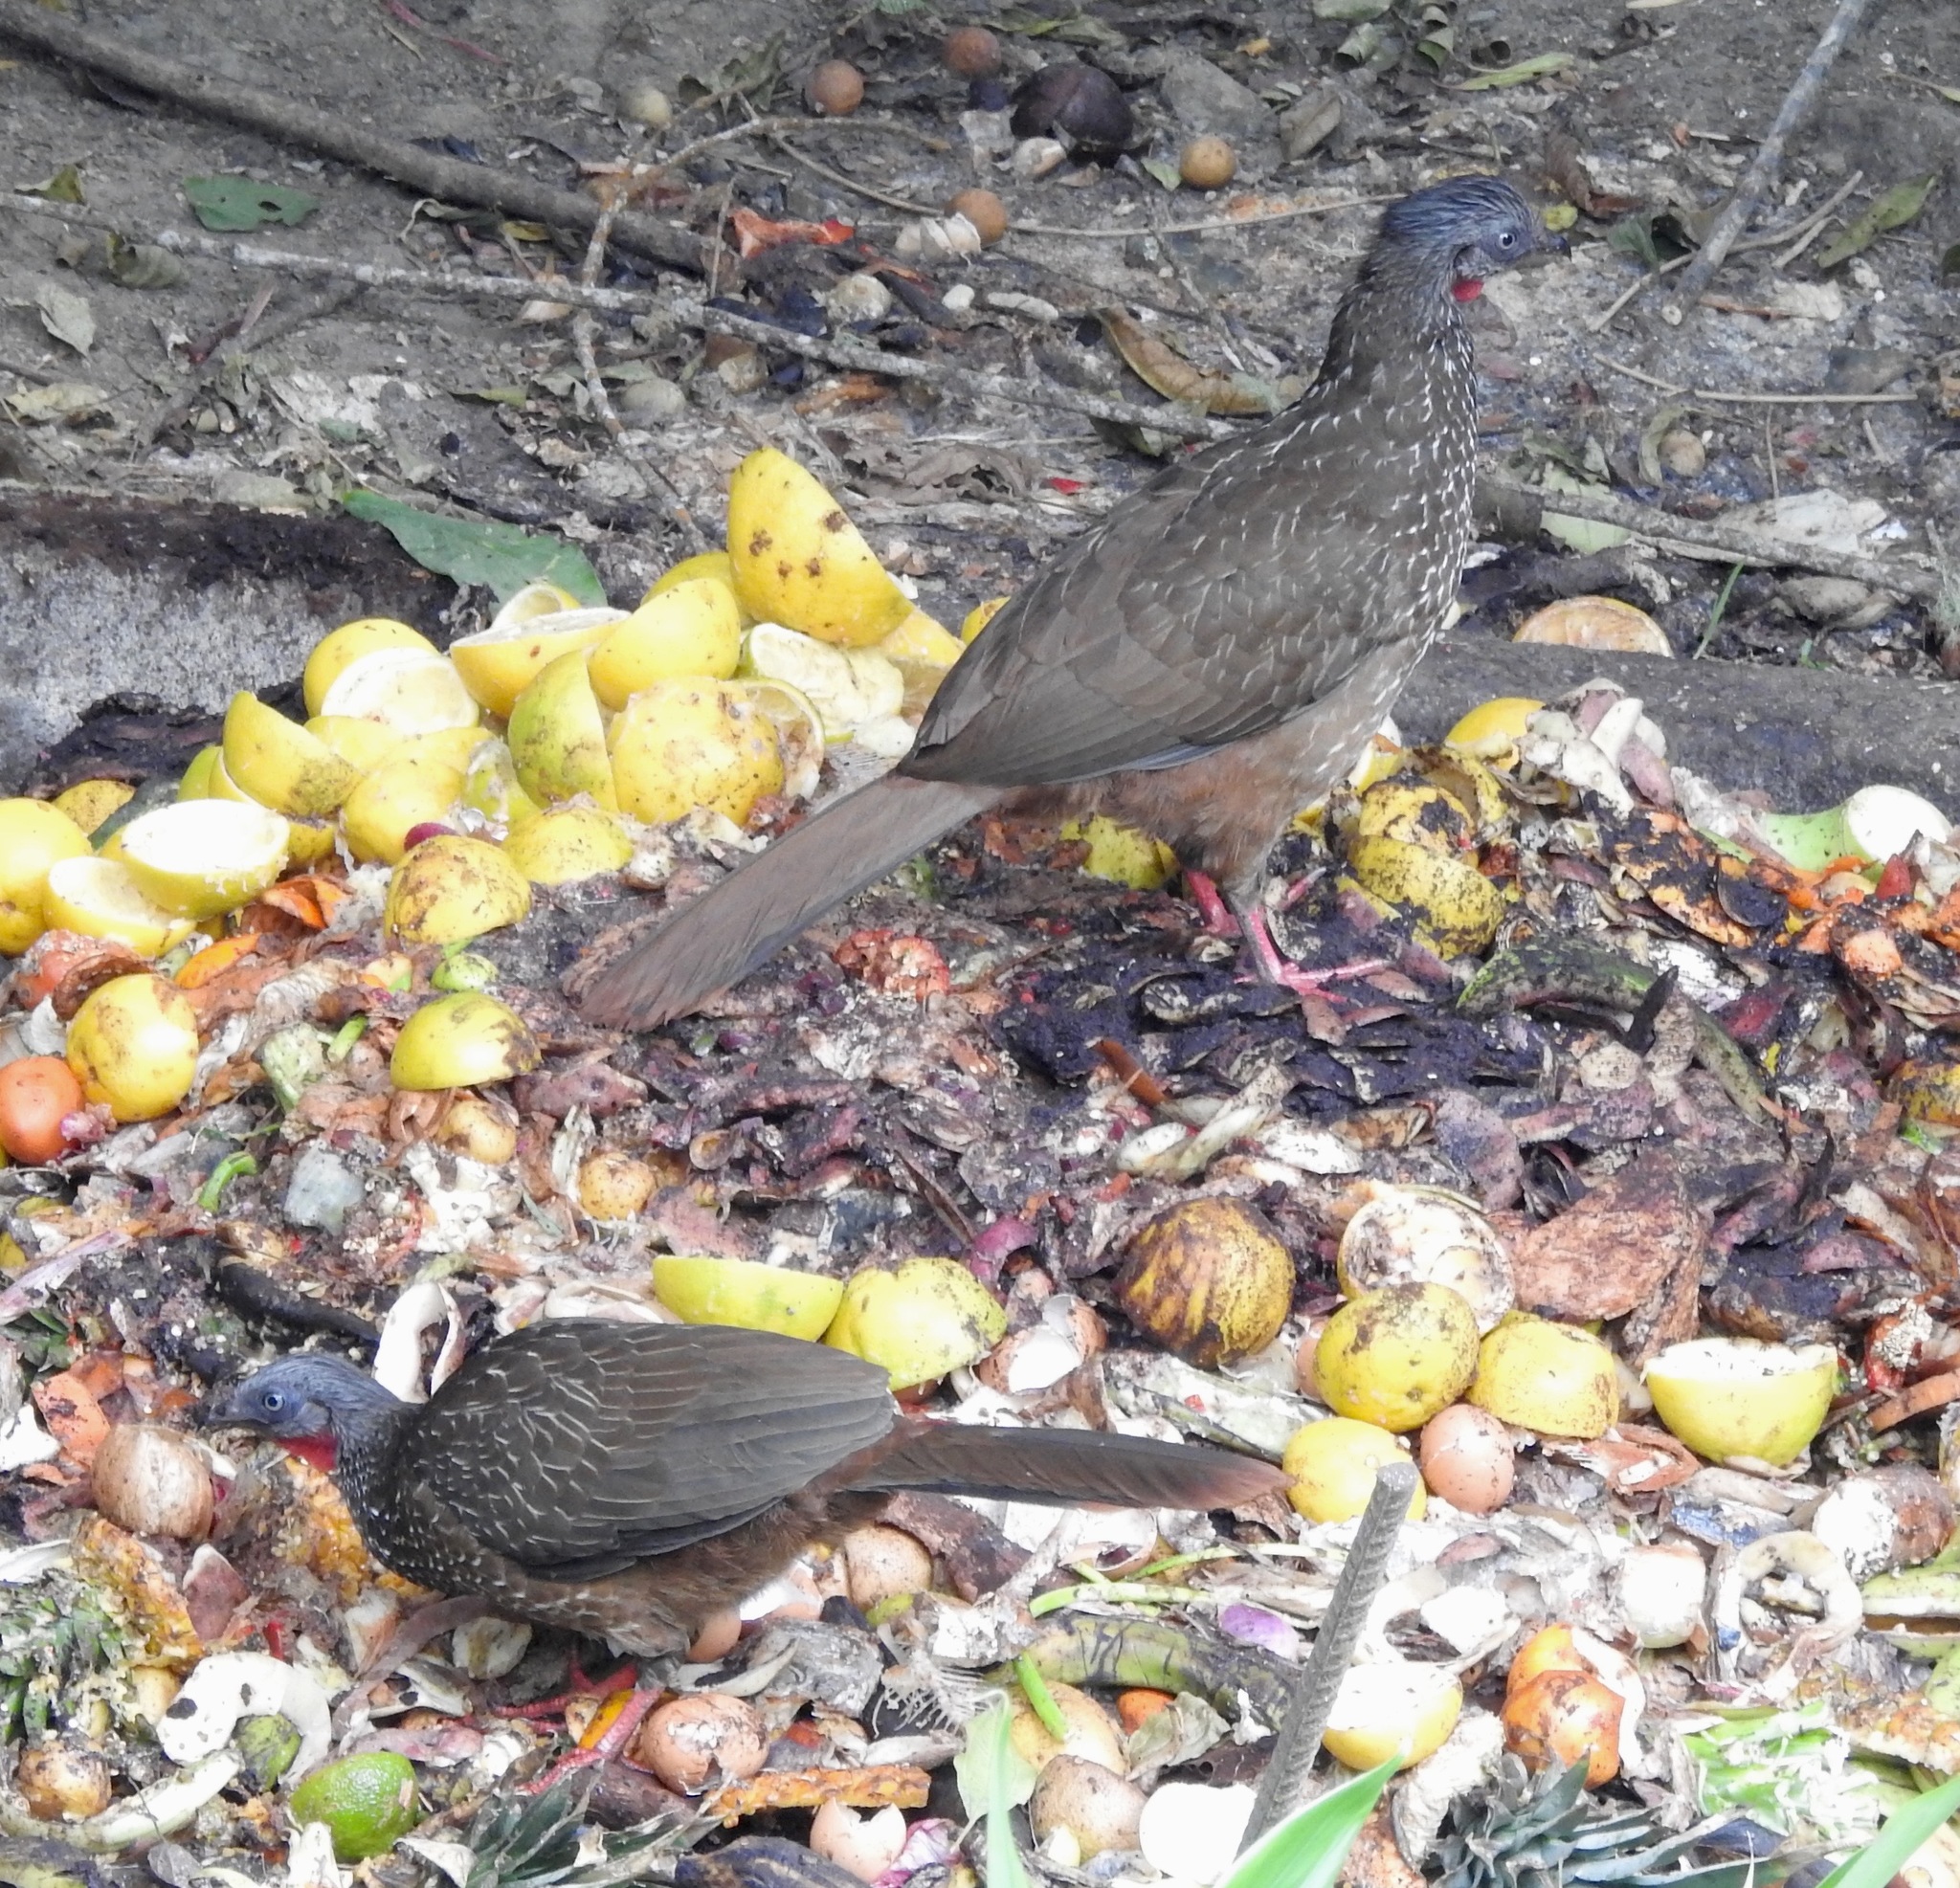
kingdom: Animalia
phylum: Chordata
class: Aves
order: Galliformes
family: Cracidae
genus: Penelope
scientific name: Penelope argyrotis
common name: Band-tailed guan
